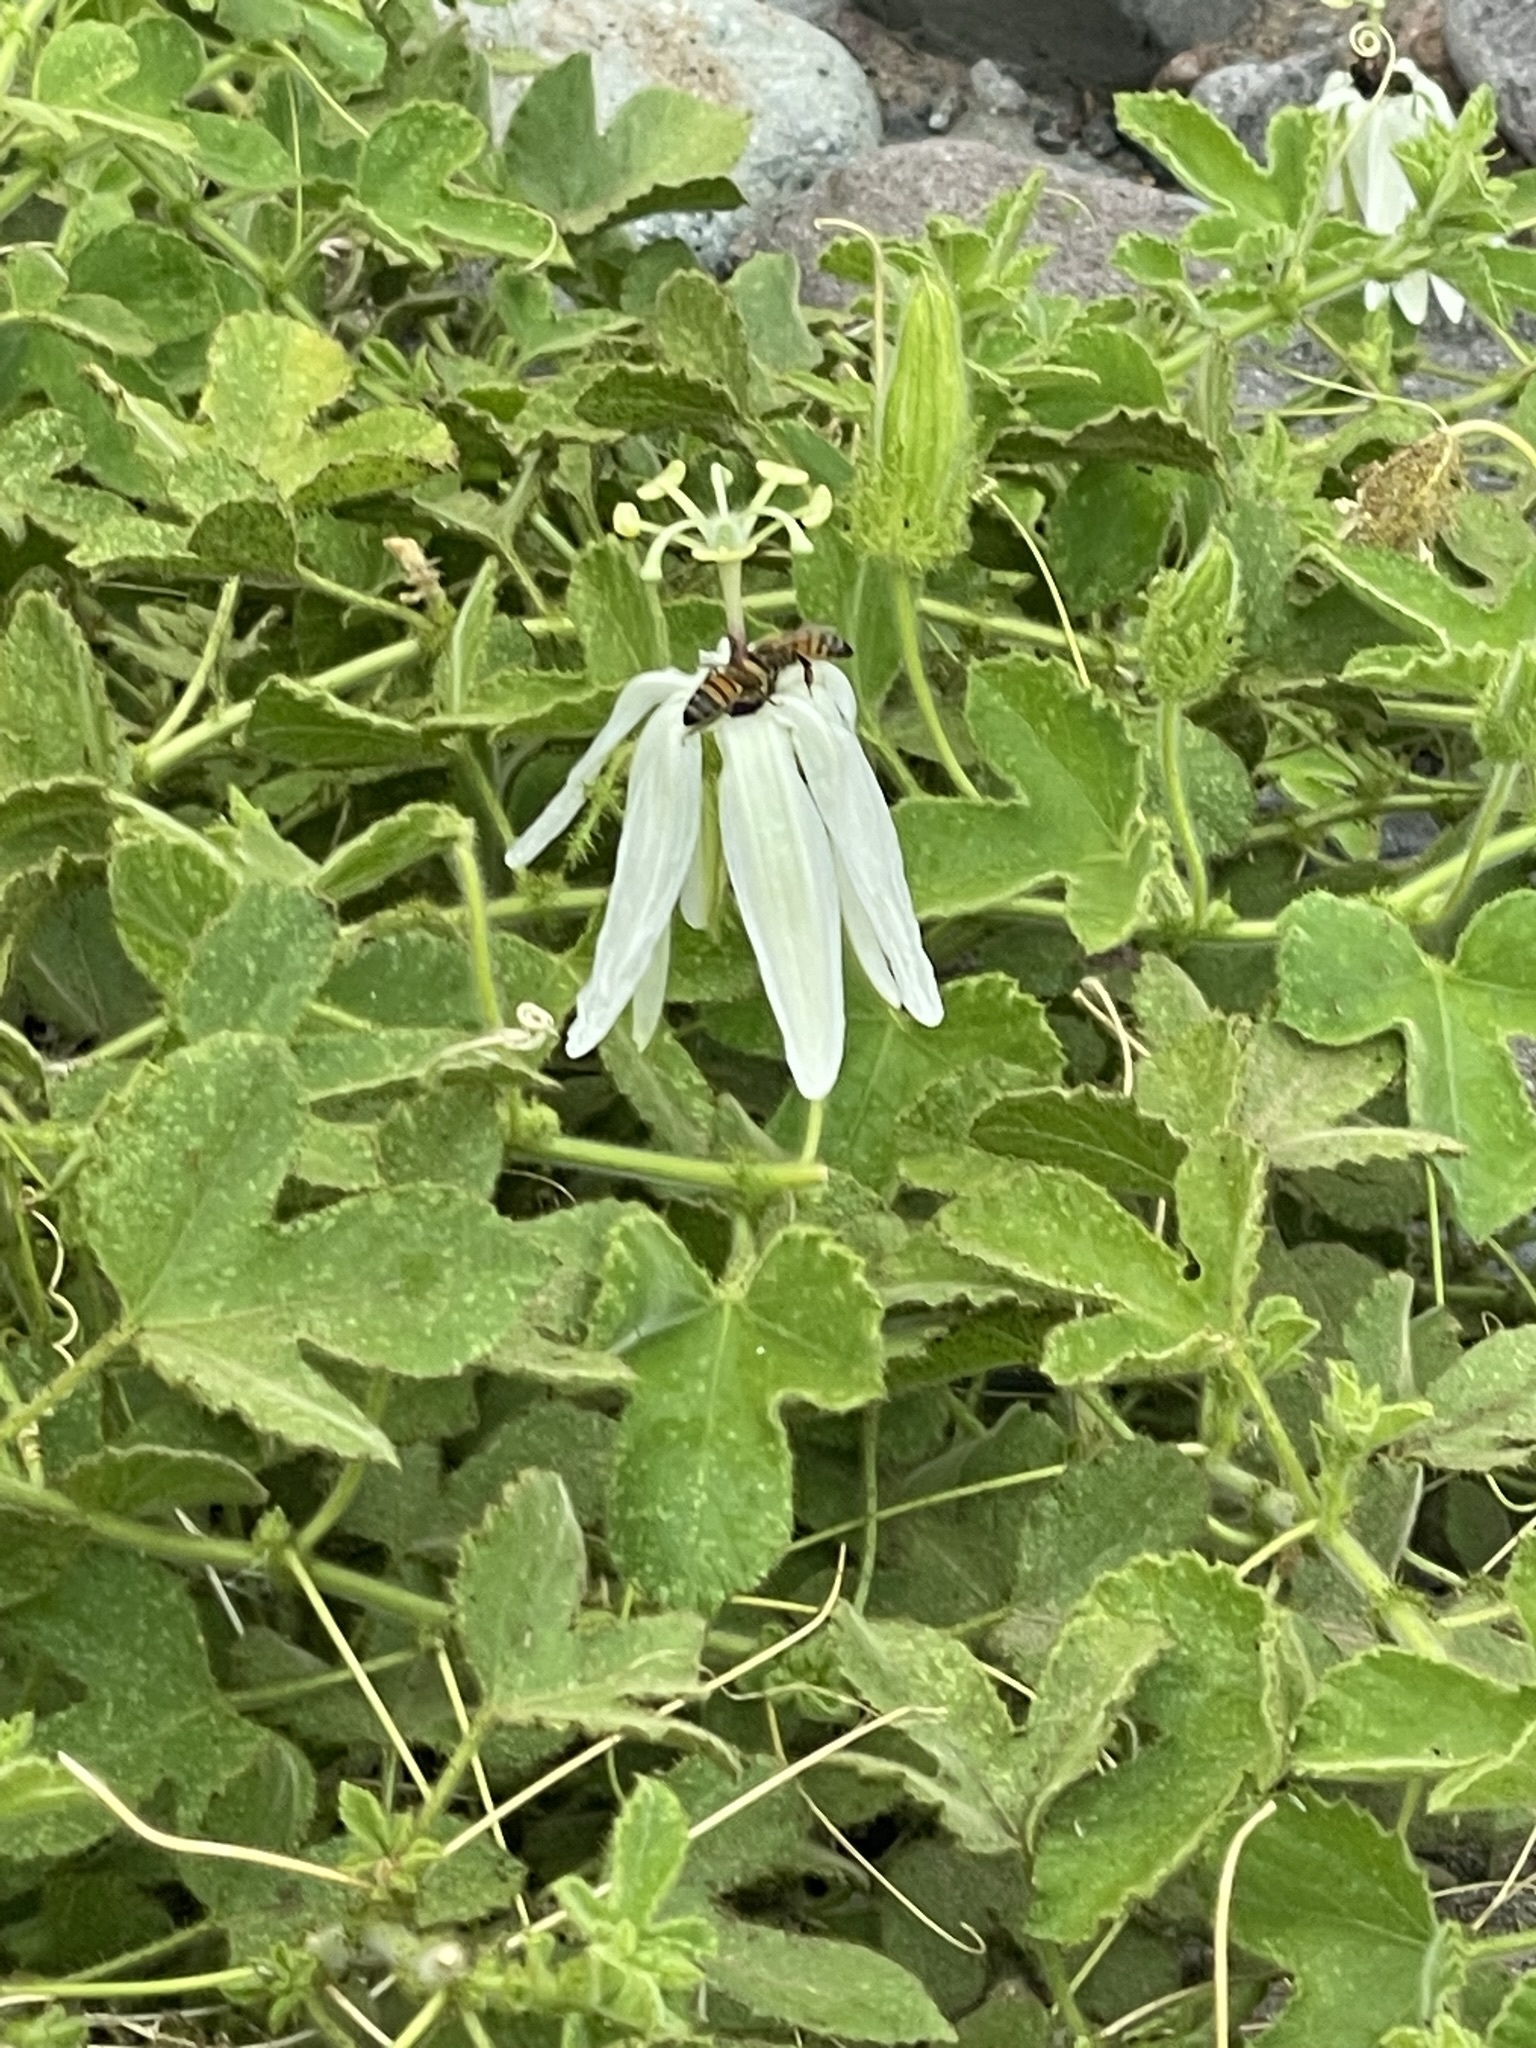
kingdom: Animalia
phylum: Arthropoda
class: Insecta
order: Hymenoptera
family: Apidae
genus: Apis
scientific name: Apis mellifera
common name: Honey bee
